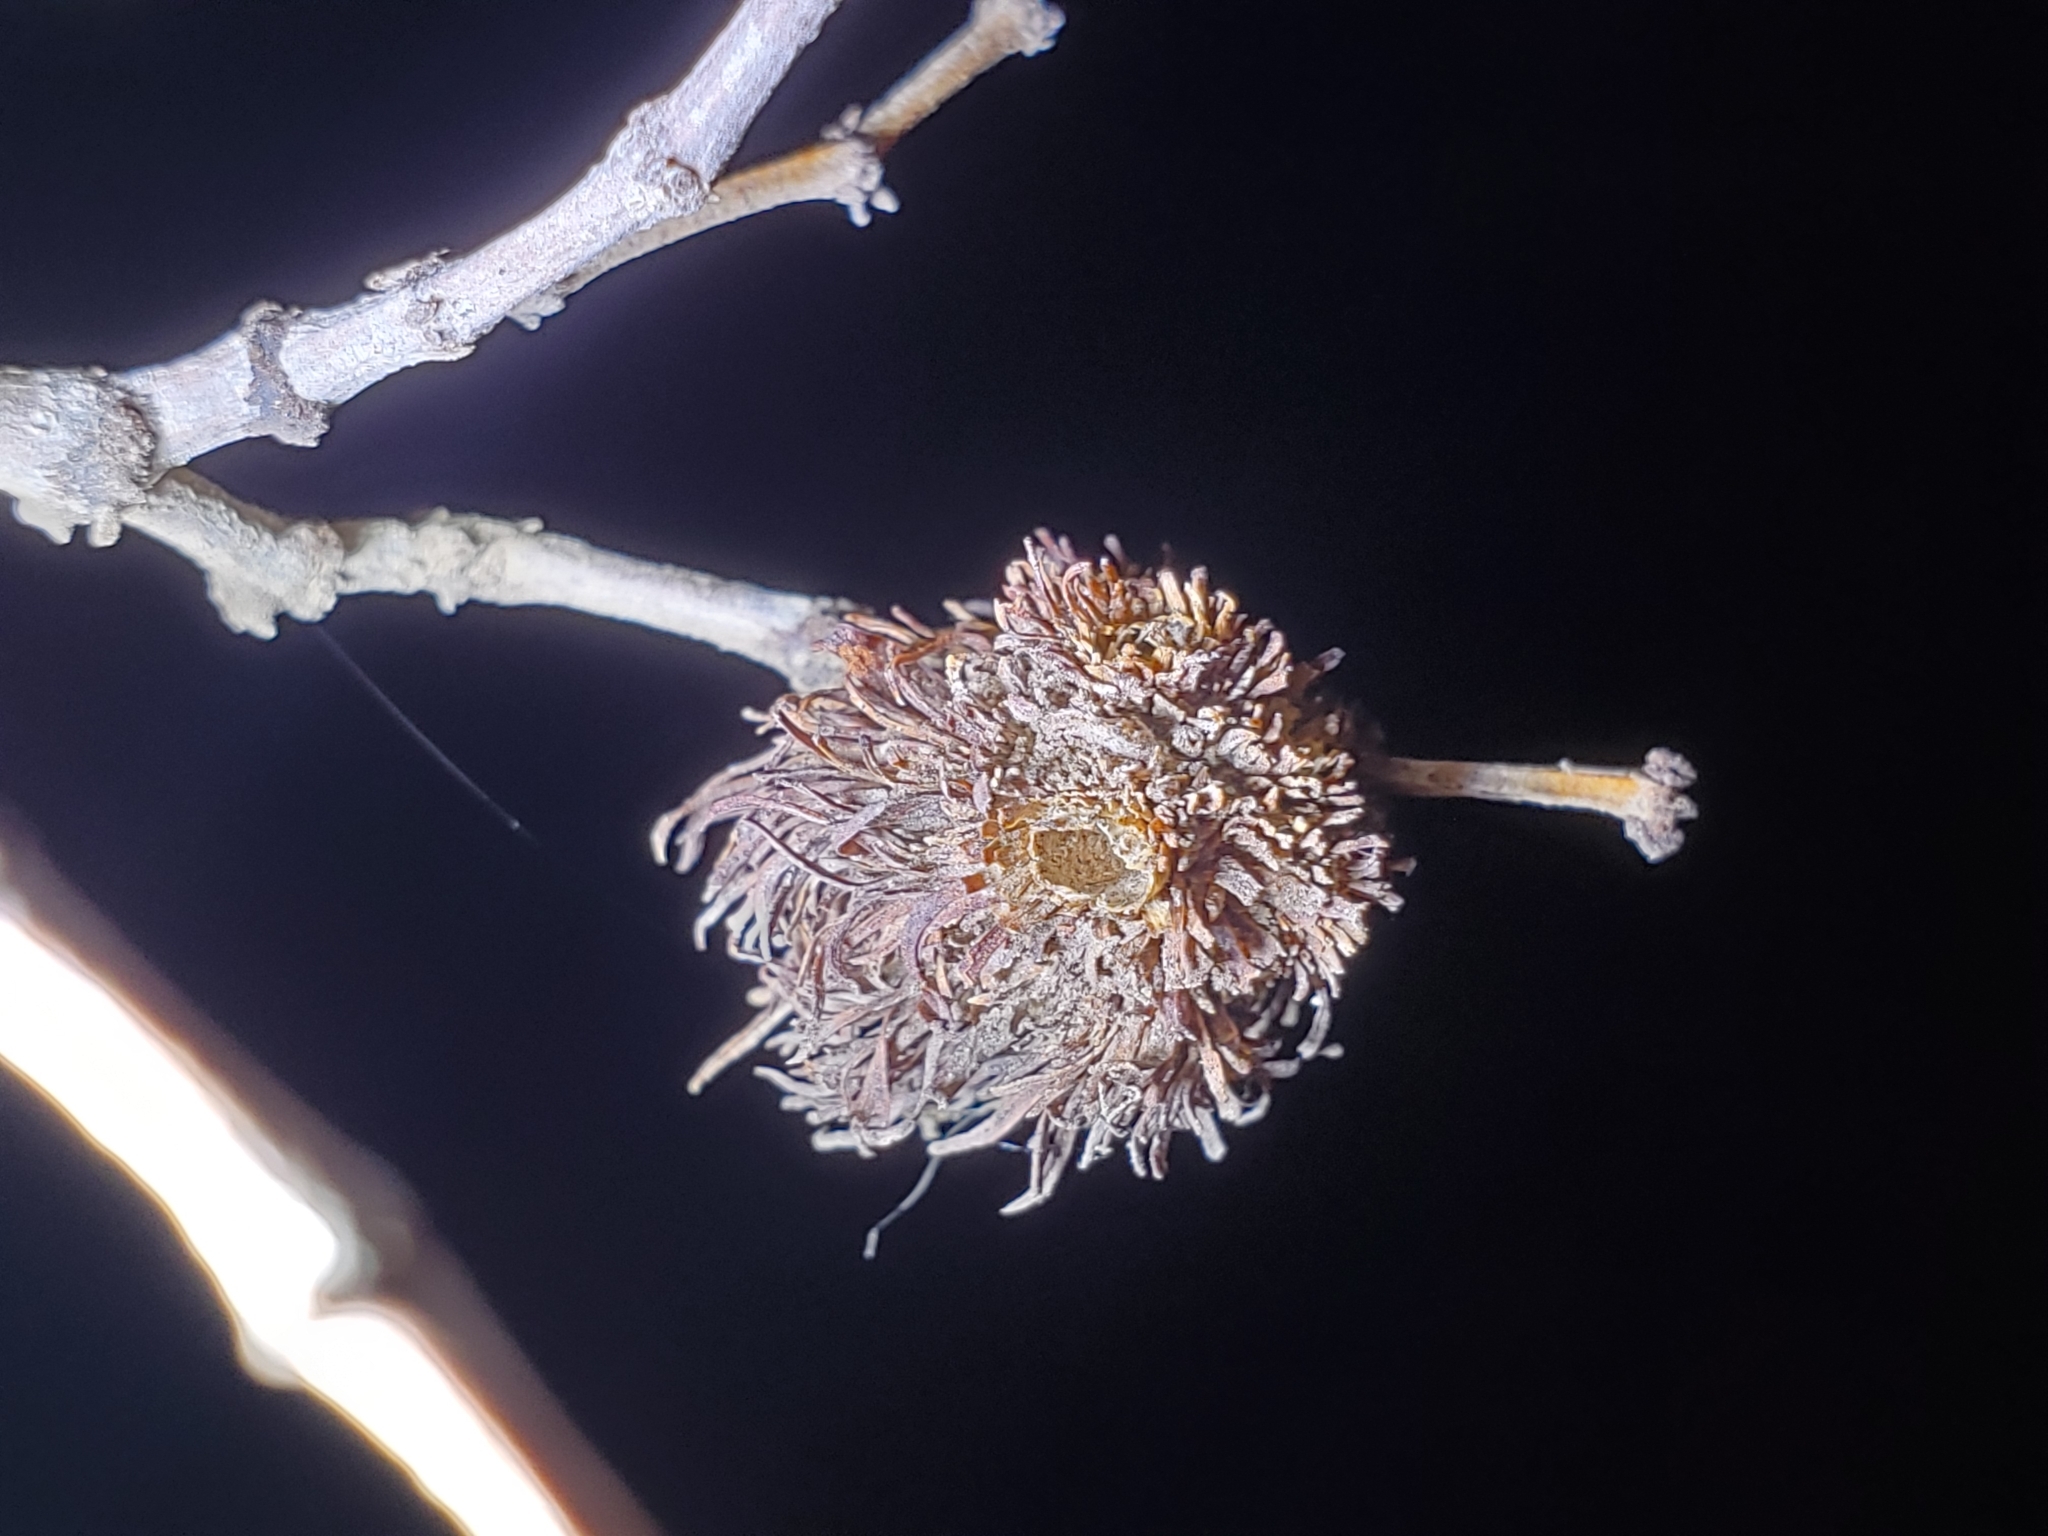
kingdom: Animalia
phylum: Arthropoda
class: Insecta
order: Diptera
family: Cecidomyiidae
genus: Asphondylia
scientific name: Asphondylia auripila
